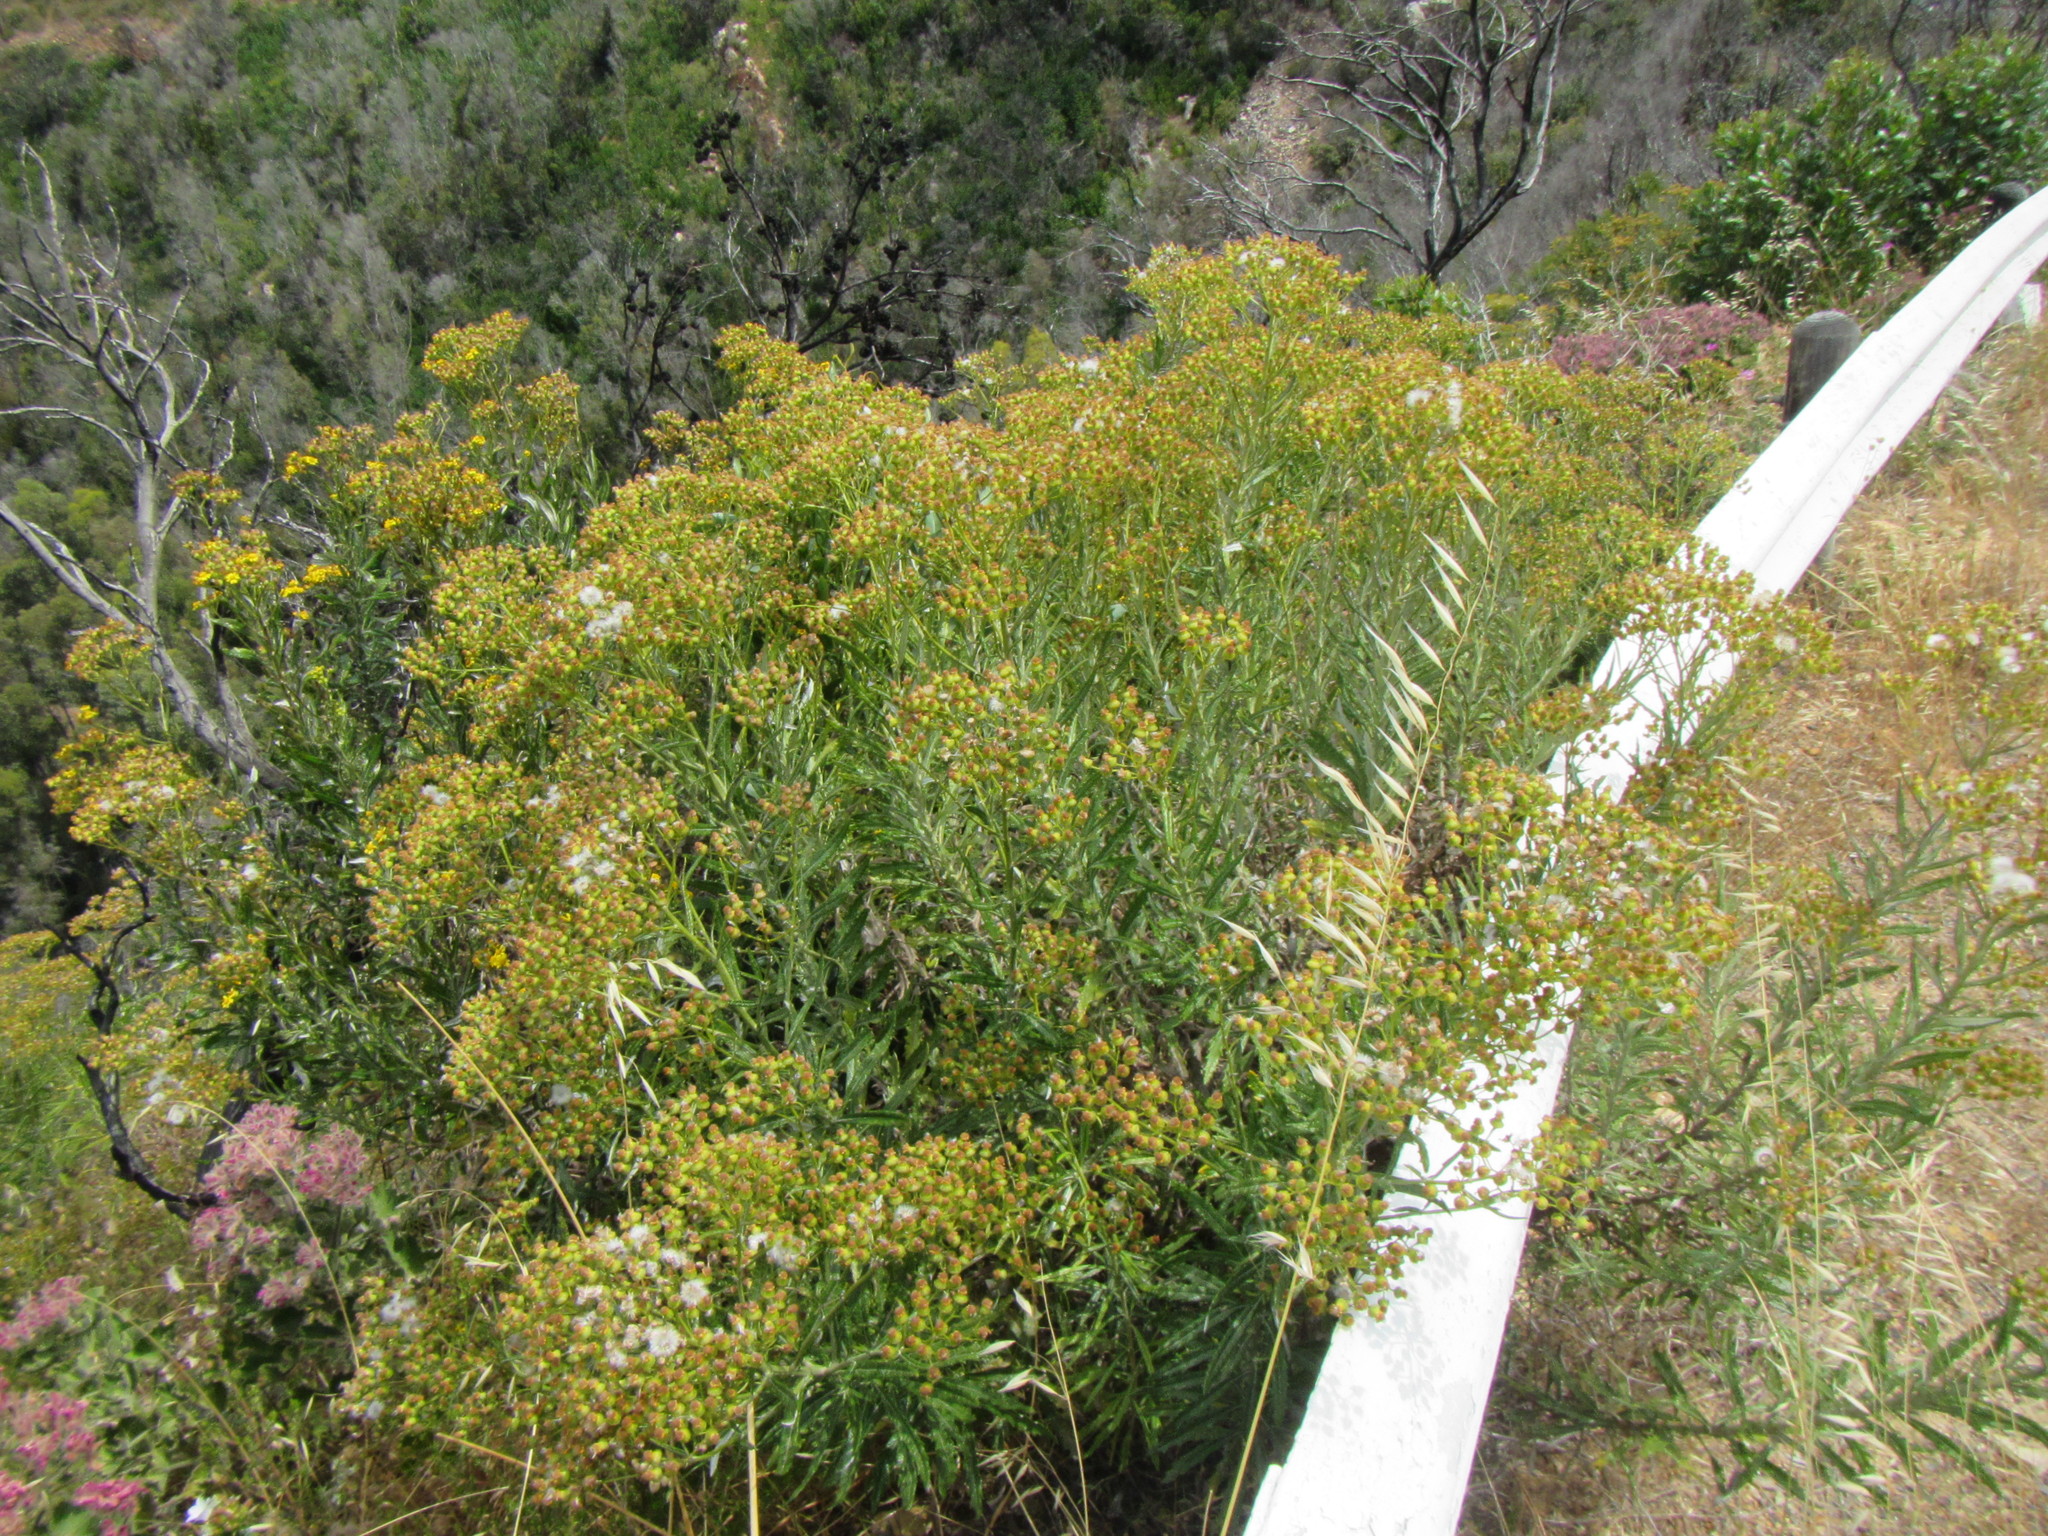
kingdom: Plantae
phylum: Tracheophyta
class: Magnoliopsida
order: Asterales
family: Asteraceae
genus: Senecio
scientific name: Senecio pterophorus
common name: Shoddy ragwort
